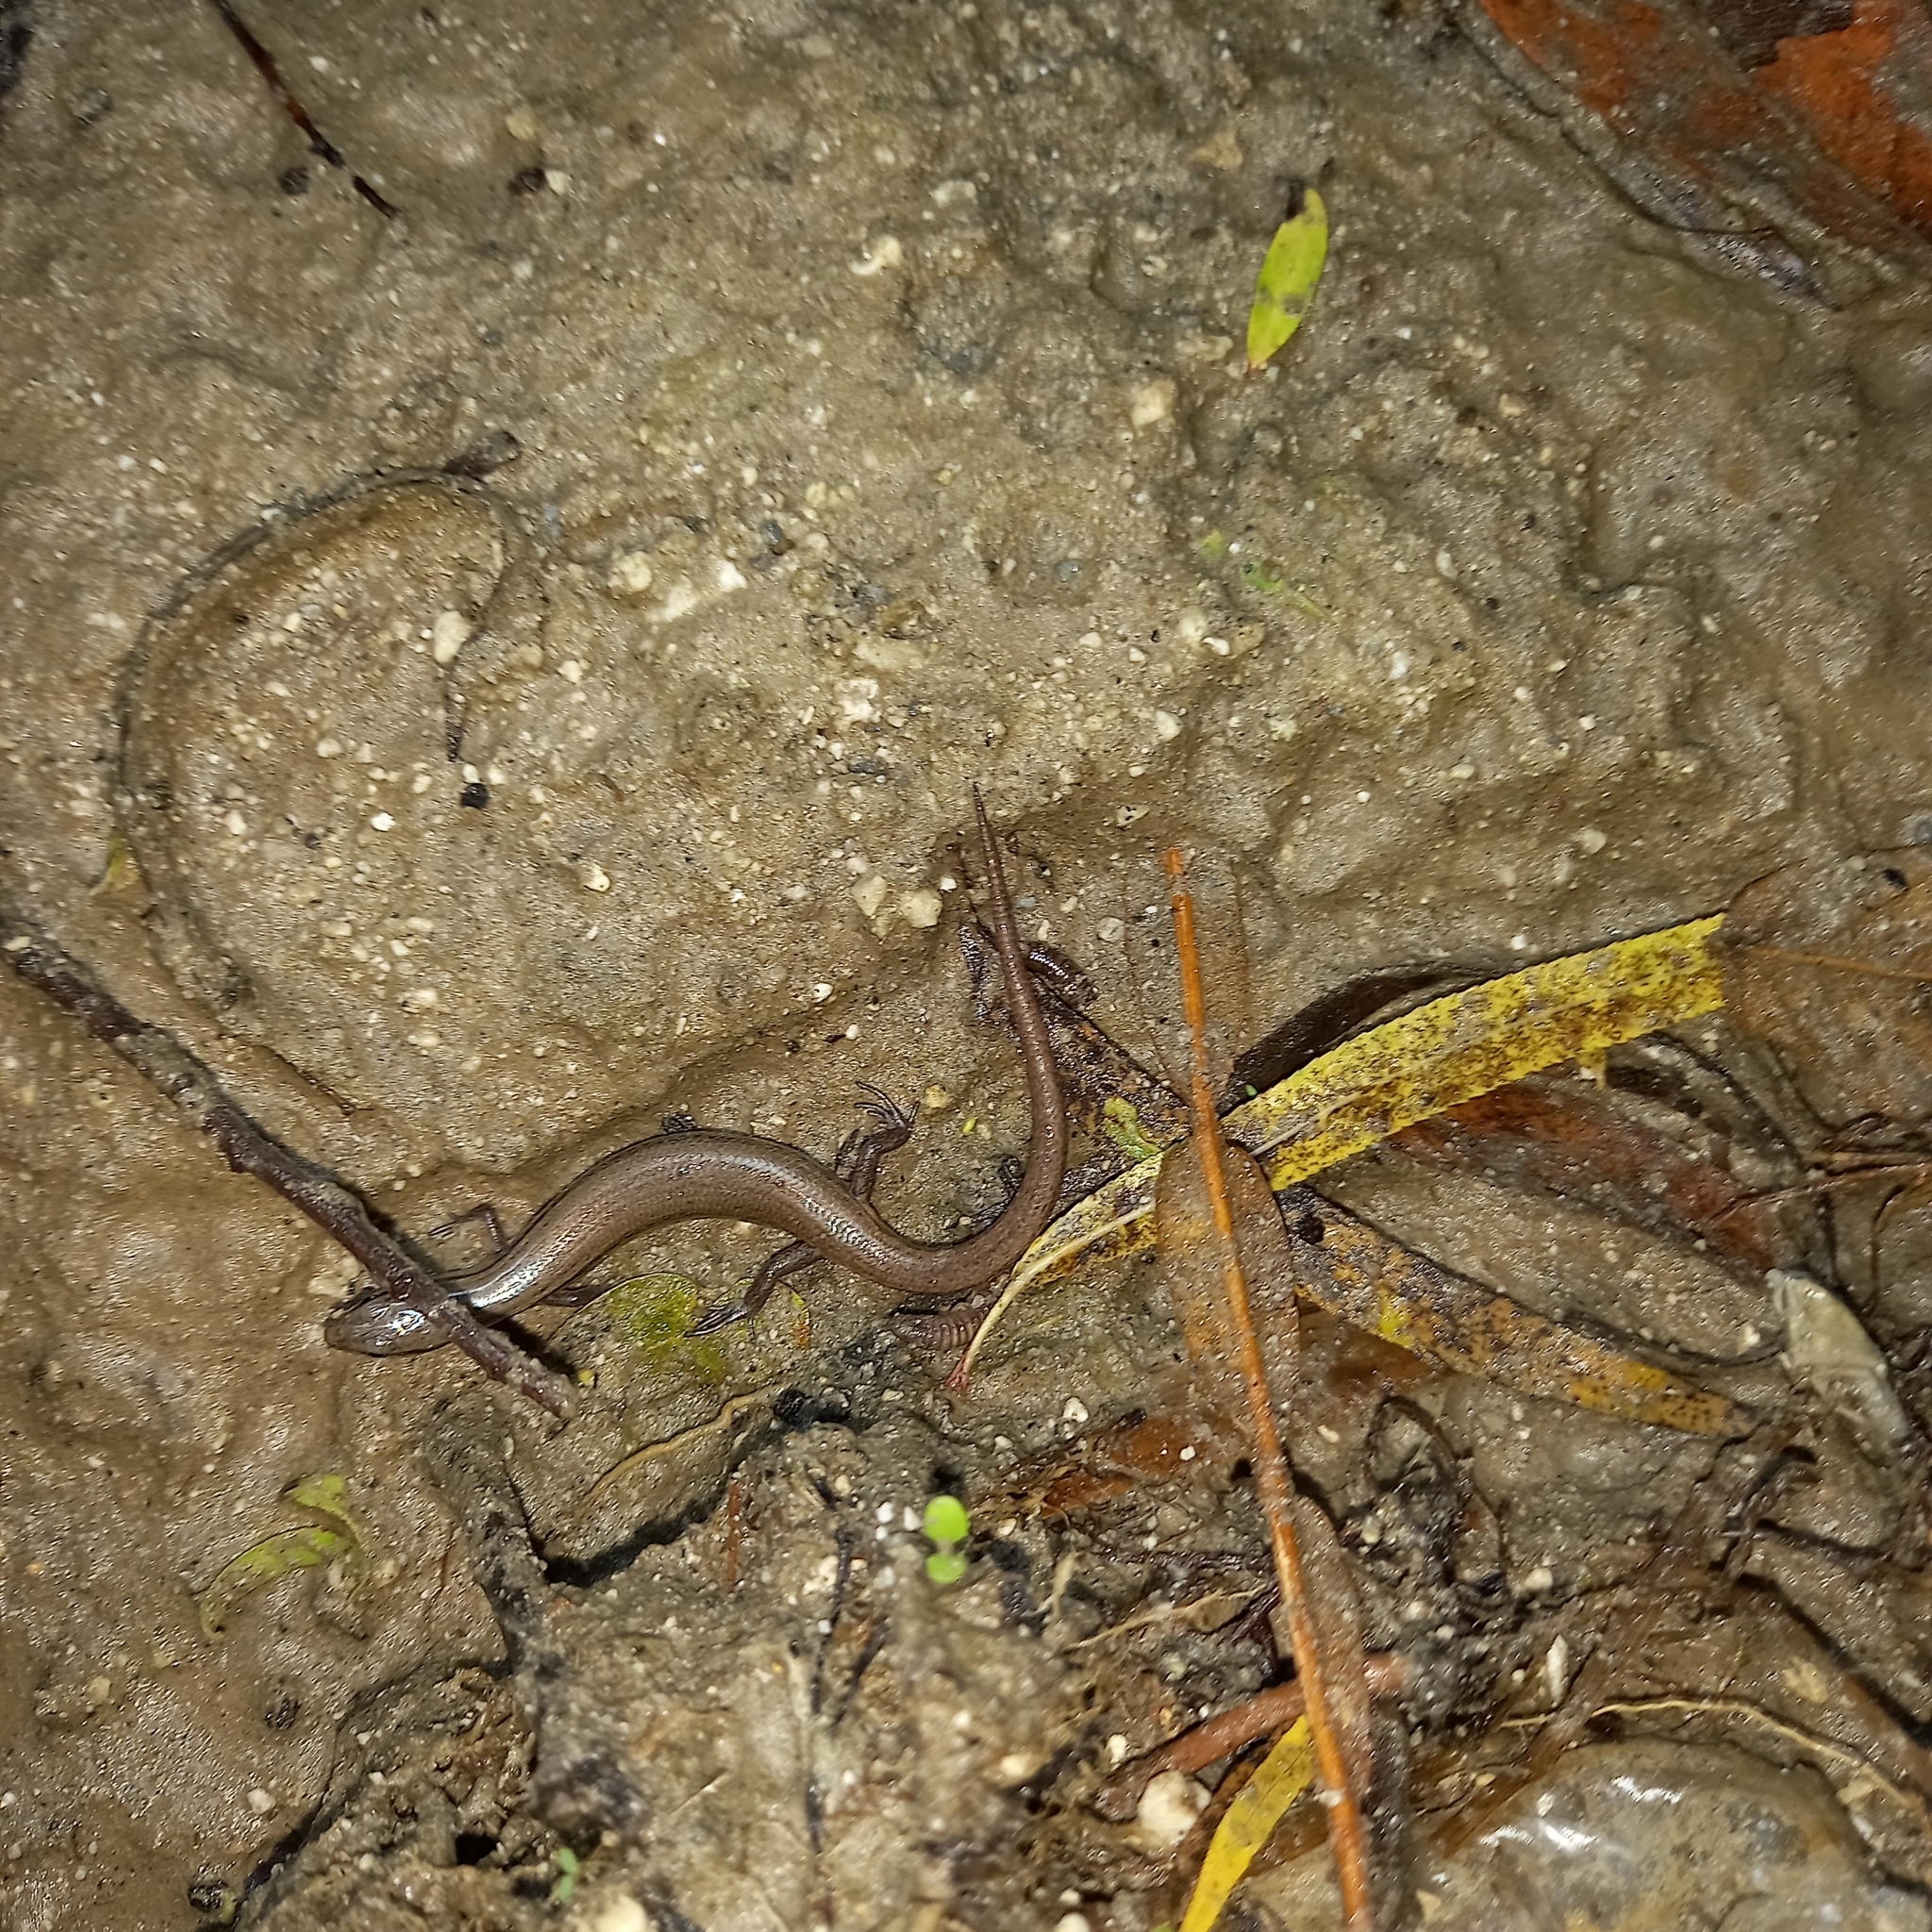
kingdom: Animalia
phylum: Chordata
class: Squamata
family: Scincidae
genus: Scincella
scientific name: Scincella assata
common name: Ground skink
